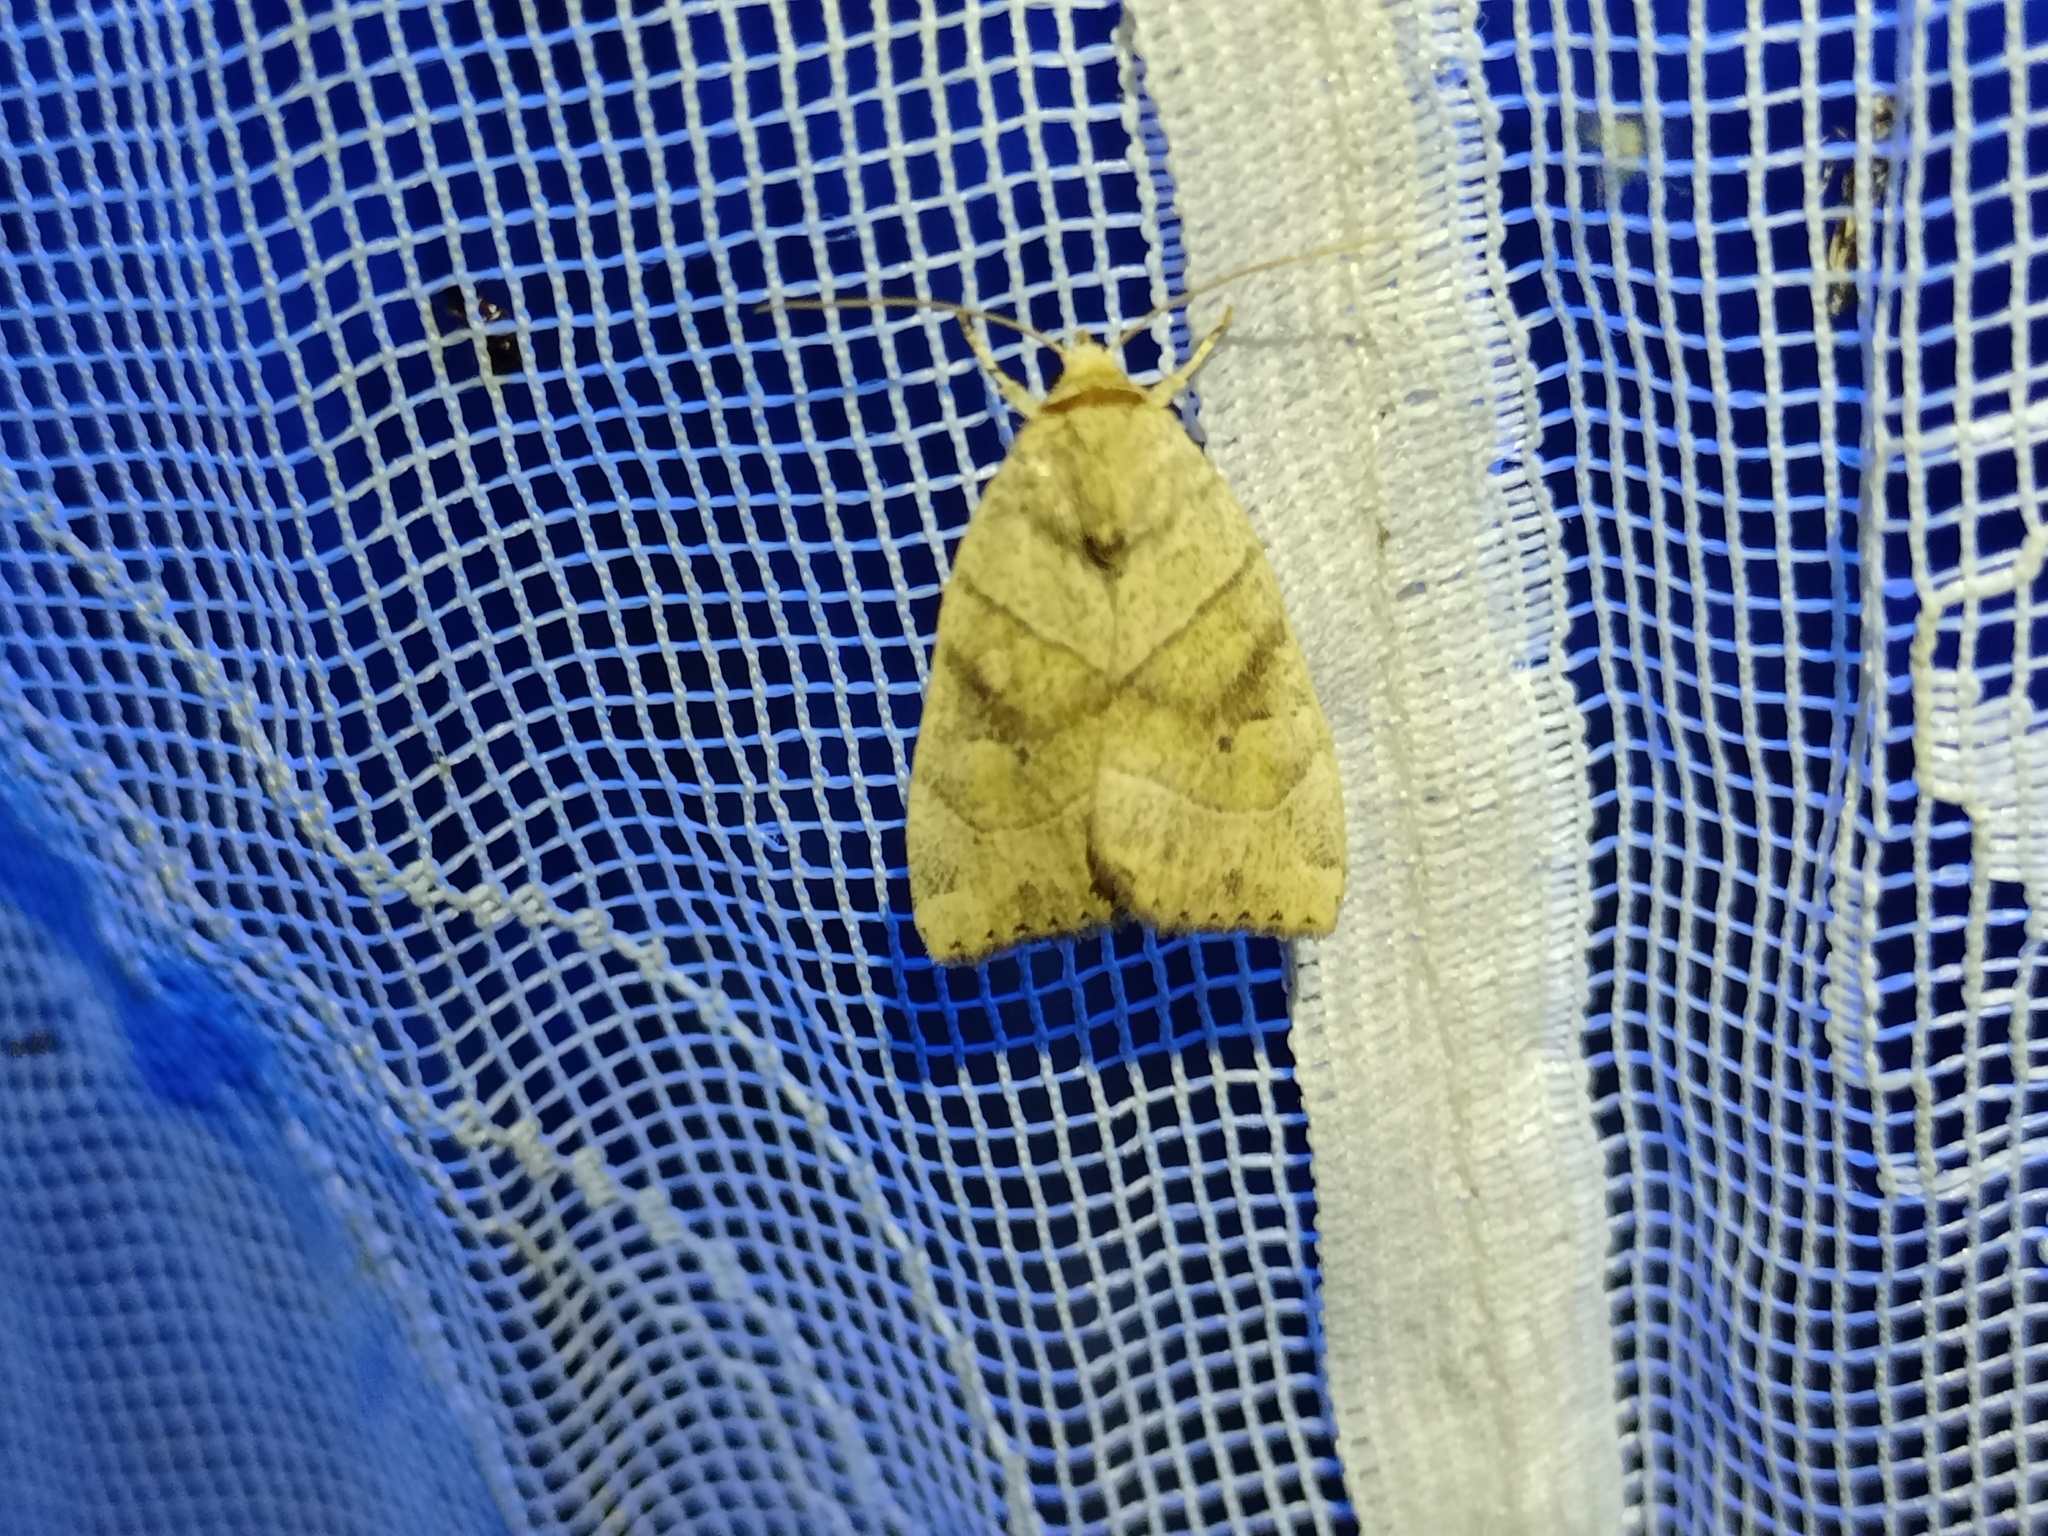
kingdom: Animalia
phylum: Arthropoda
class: Insecta
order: Lepidoptera
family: Noctuidae
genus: Cosmia
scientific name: Cosmia trapezina
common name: Dun-bar
